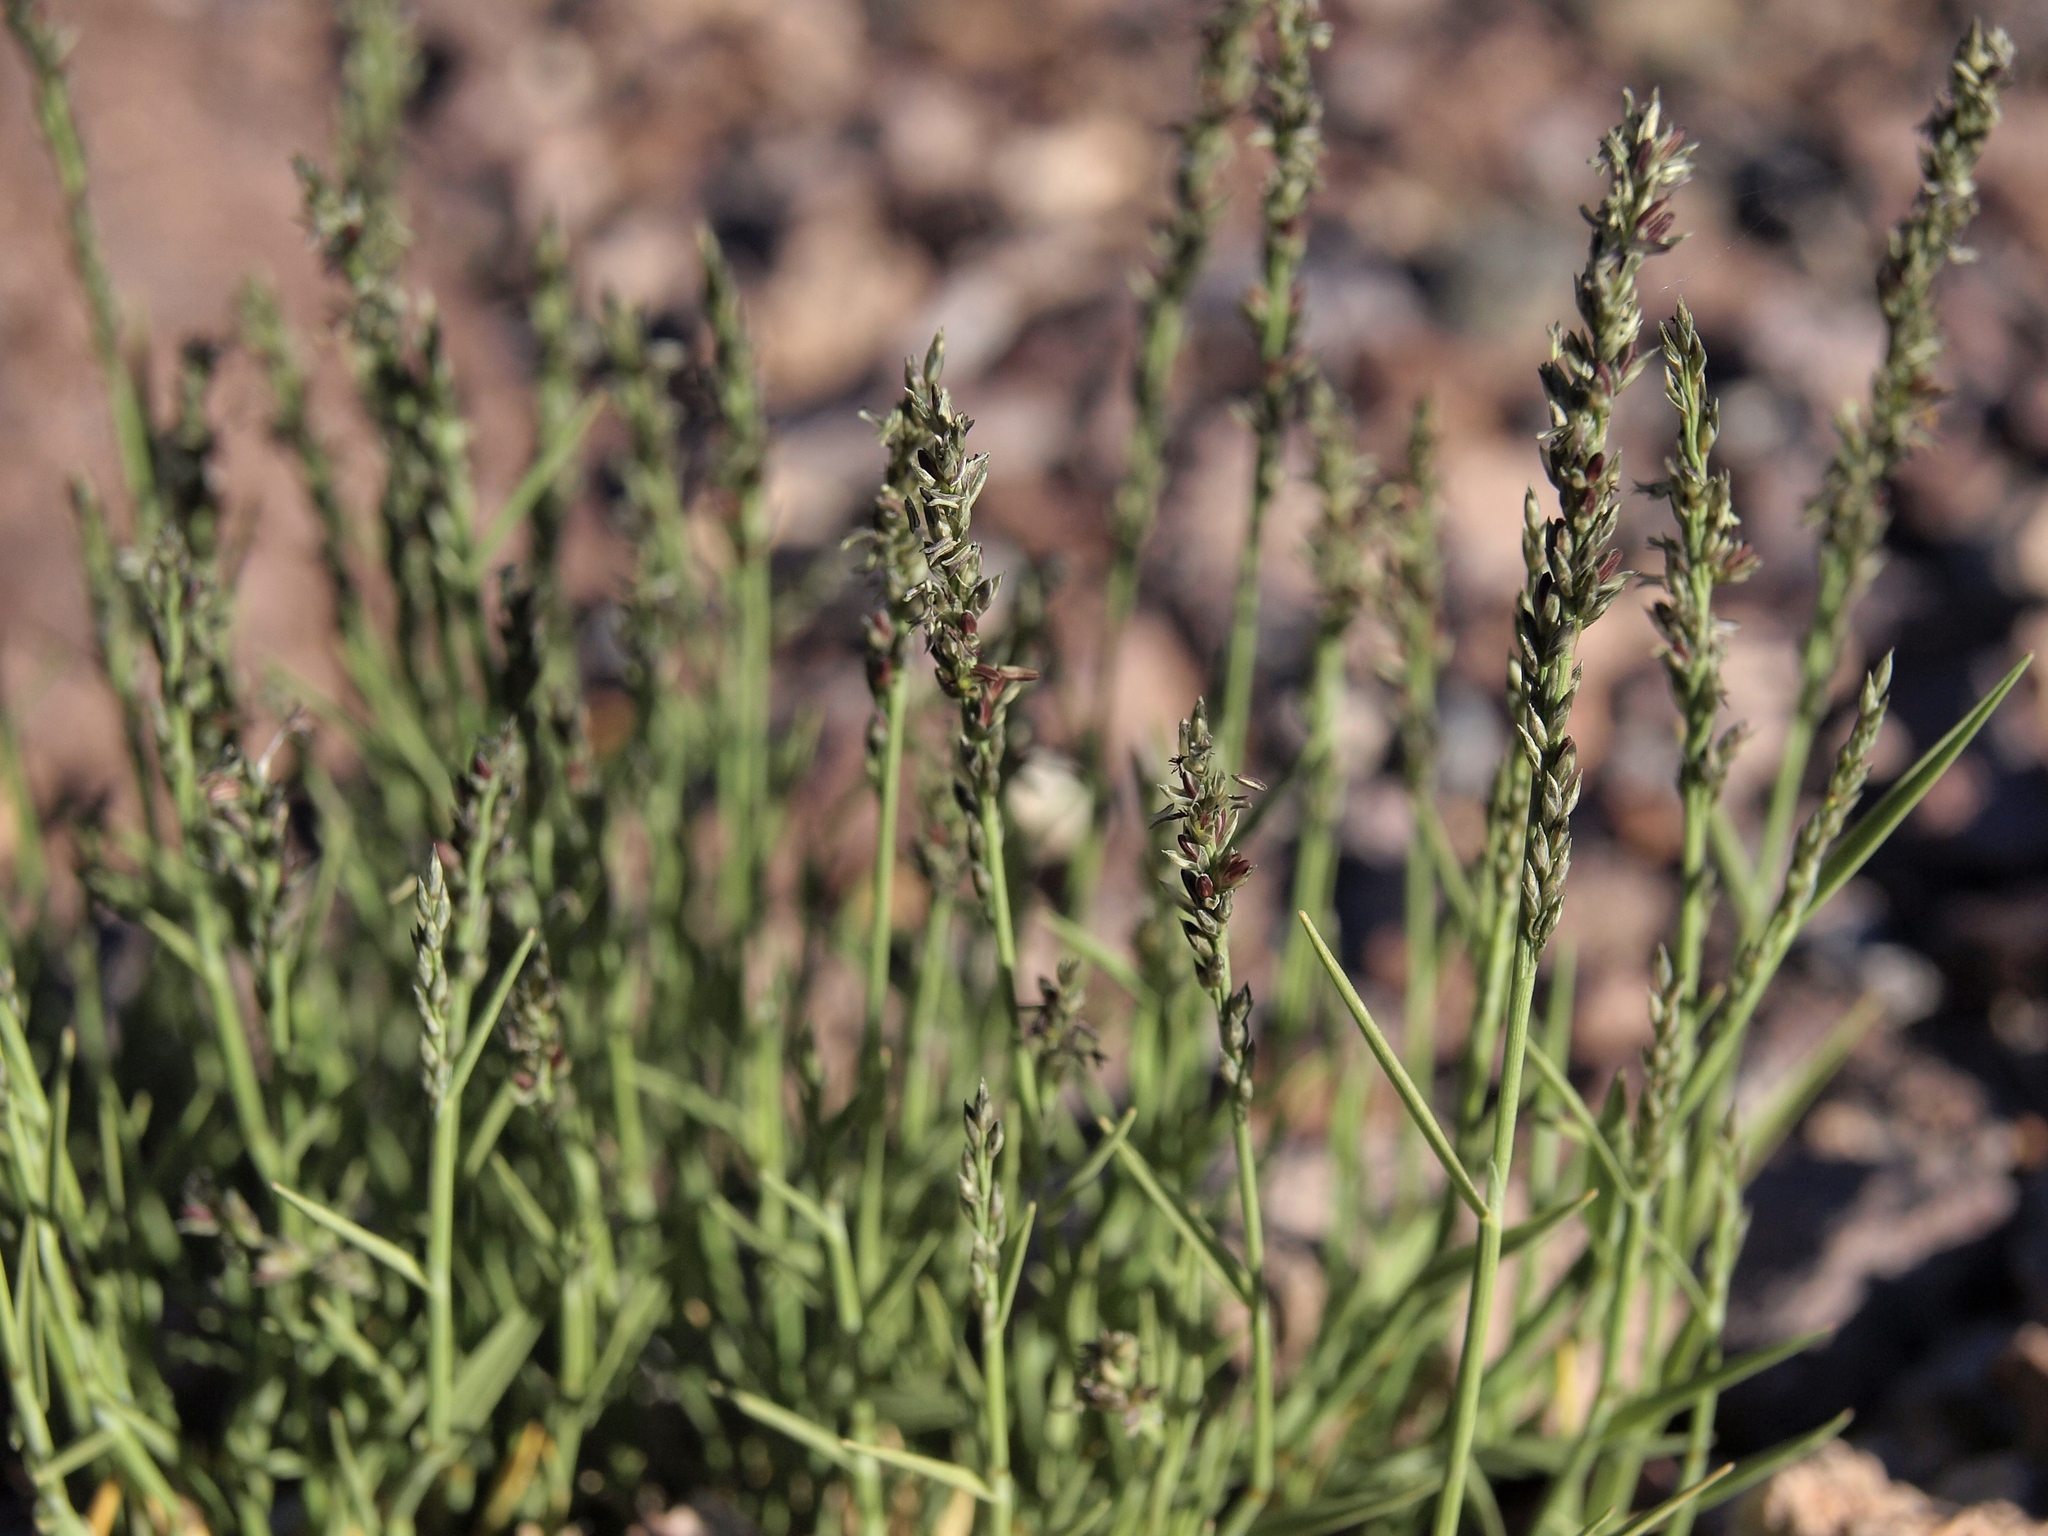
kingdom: Plantae
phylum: Tracheophyta
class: Liliopsida
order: Poales
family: Poaceae
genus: Muhlenbergia
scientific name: Muhlenbergia richardsonis
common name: Mat muhly
